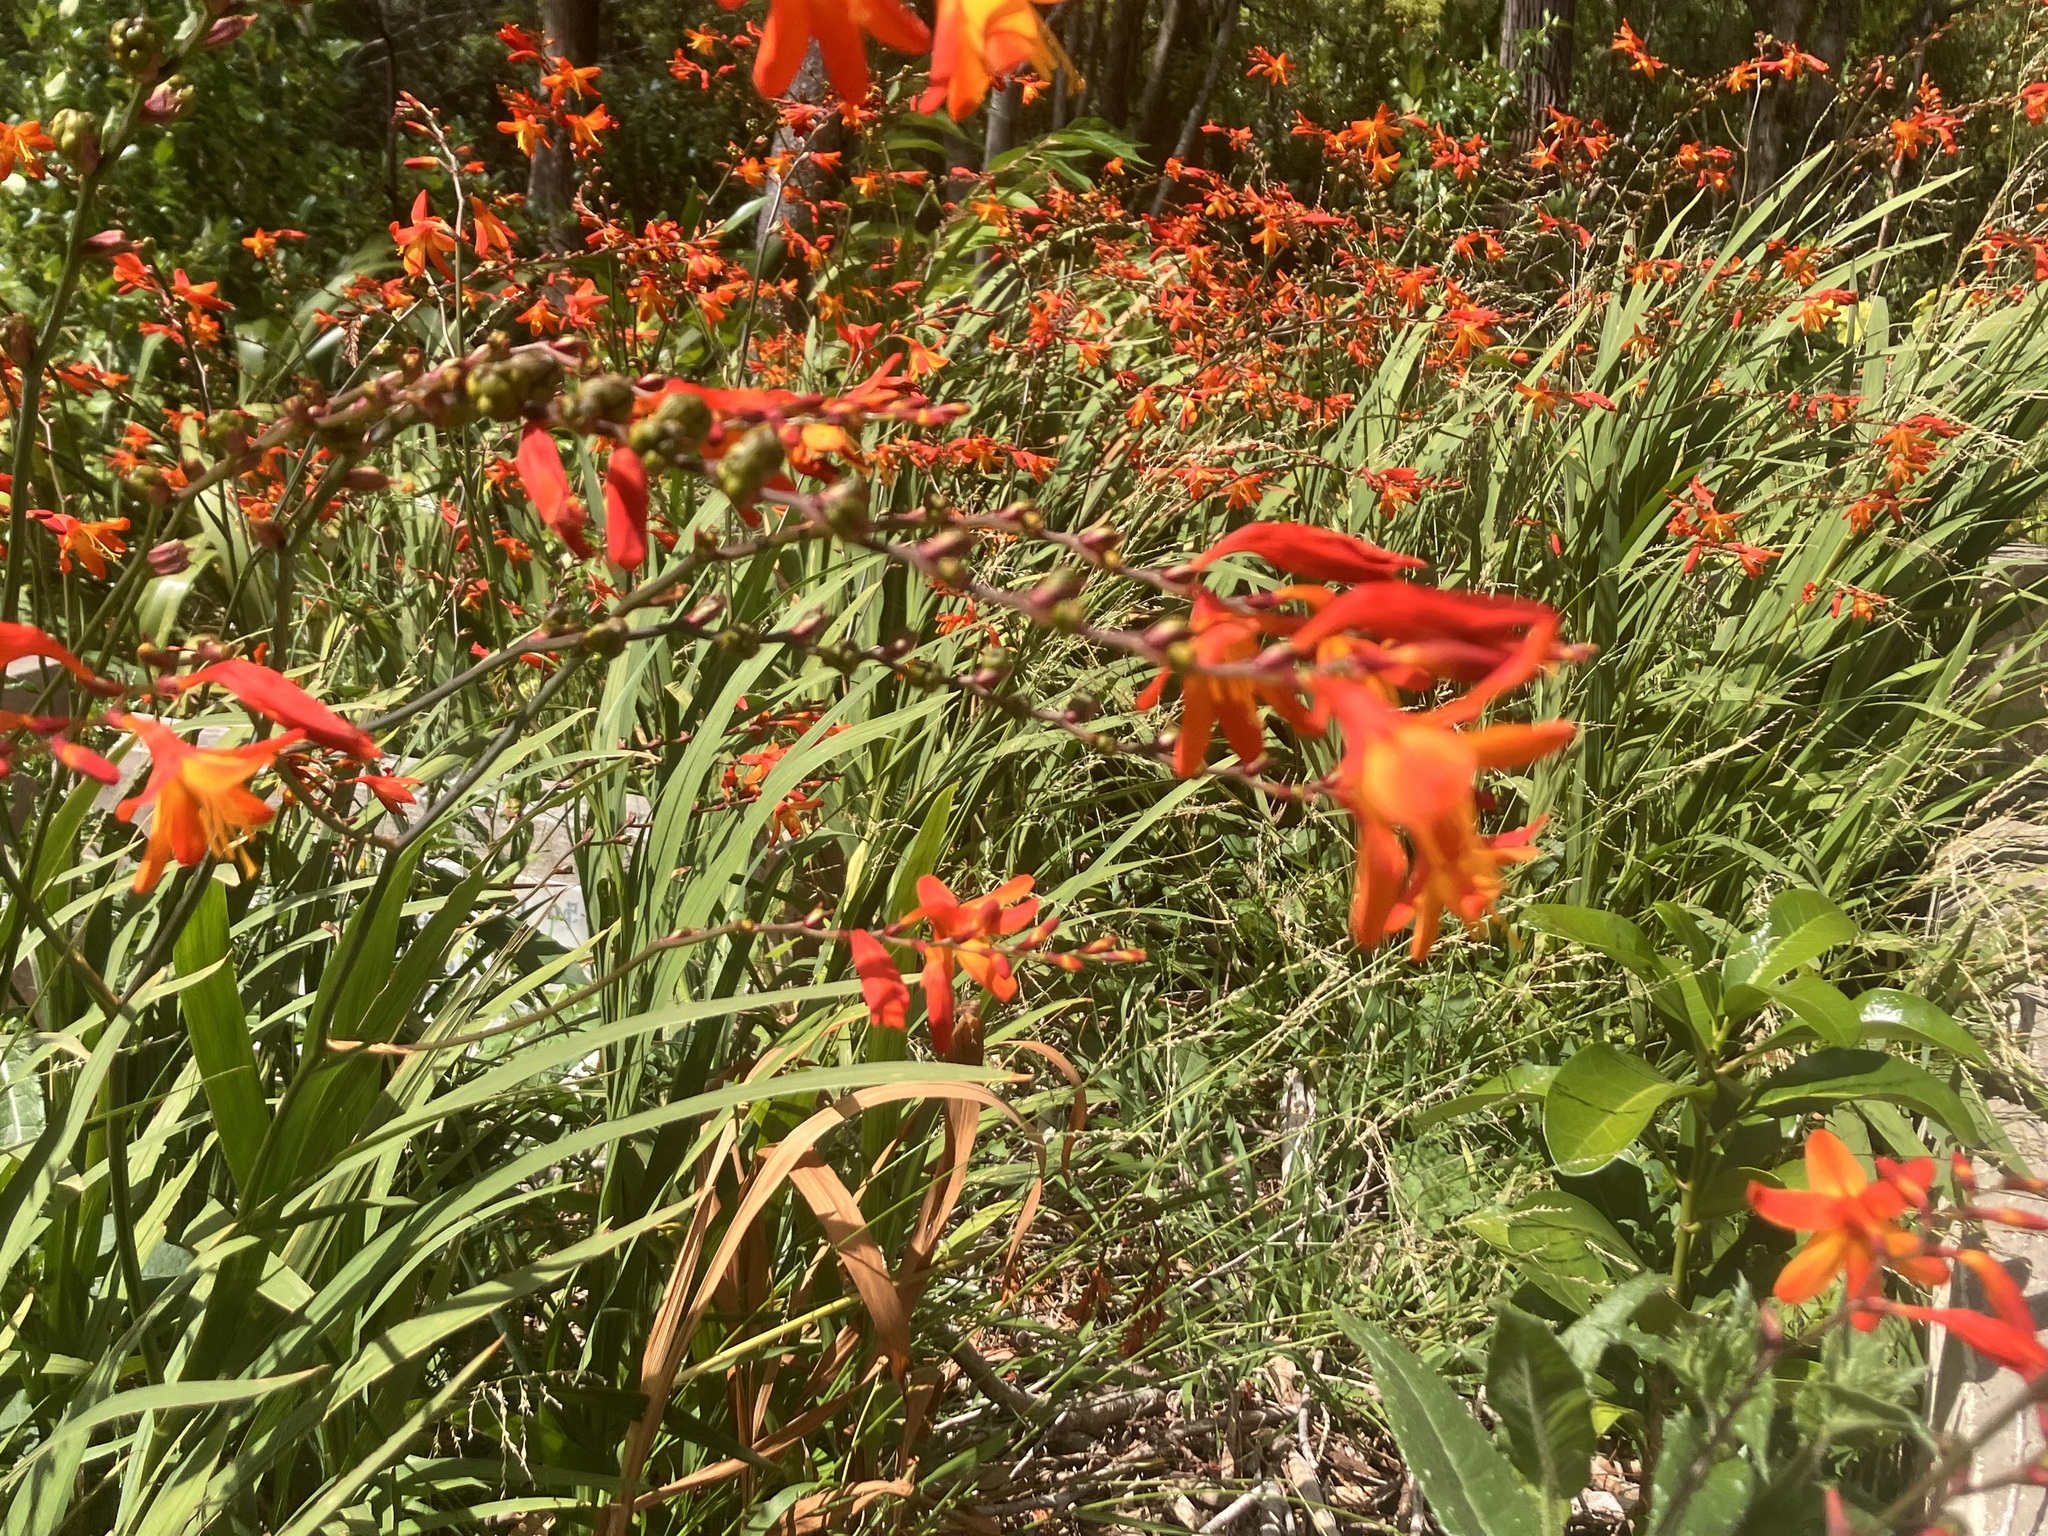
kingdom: Plantae
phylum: Tracheophyta
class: Liliopsida
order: Asparagales
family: Iridaceae
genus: Crocosmia
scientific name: Crocosmia crocosmiiflora
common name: Montbretia
